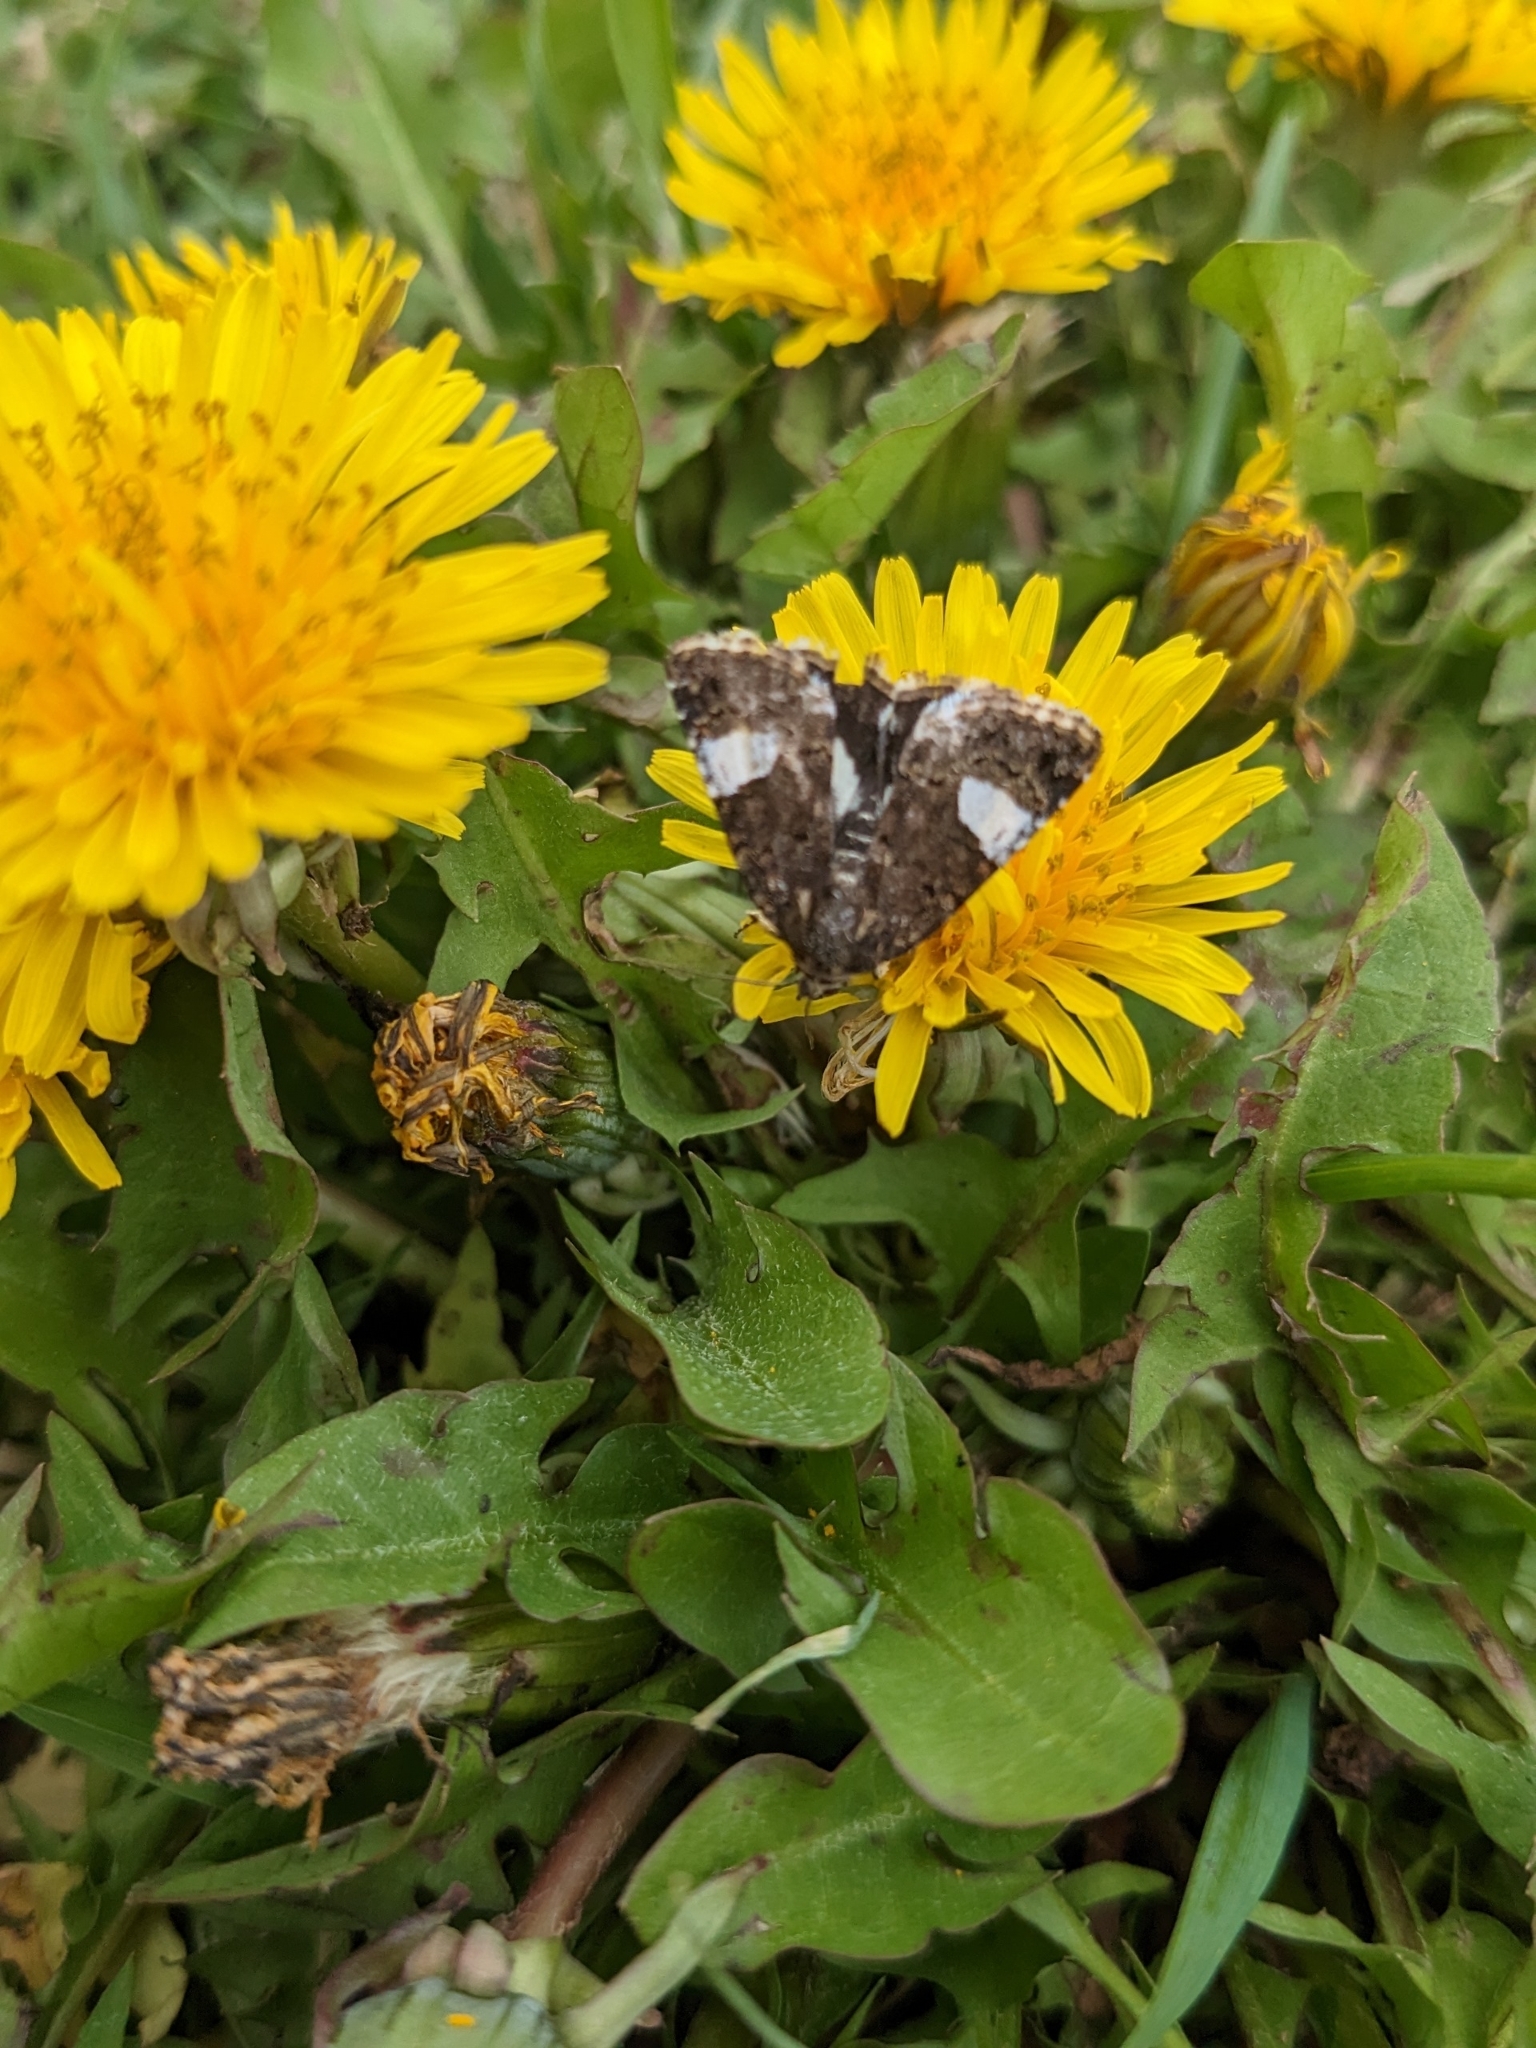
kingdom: Animalia
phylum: Arthropoda
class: Insecta
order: Lepidoptera
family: Erebidae
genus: Tyta
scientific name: Tyta luctuosa
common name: Four-spotted
